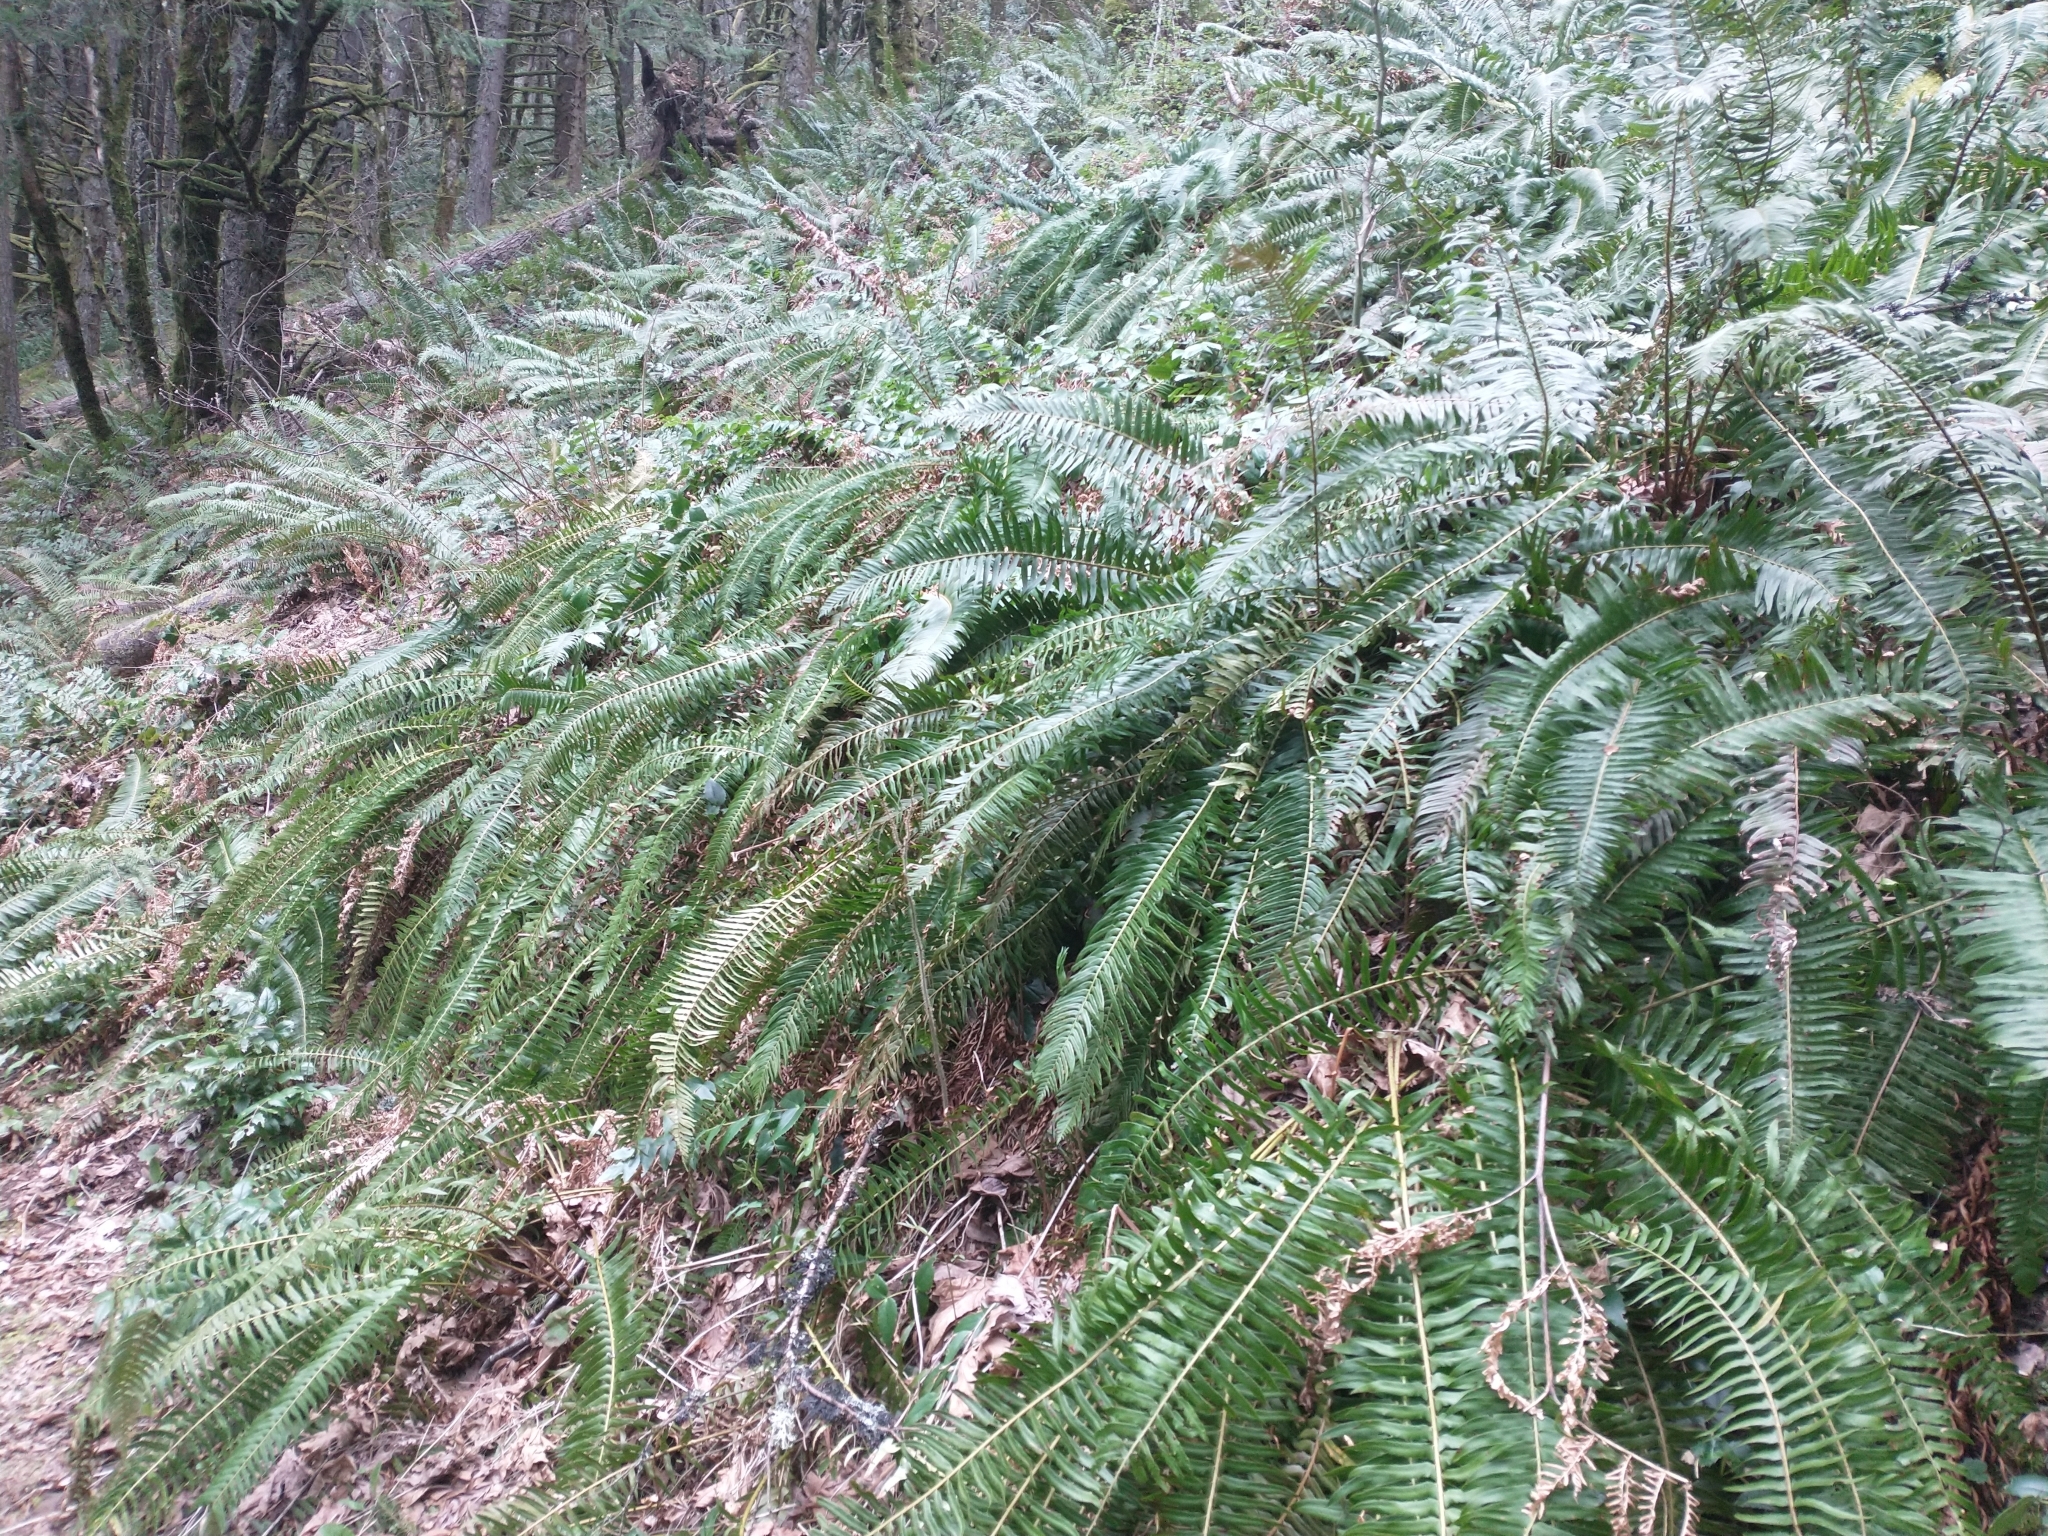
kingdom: Plantae
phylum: Tracheophyta
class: Polypodiopsida
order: Polypodiales
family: Dryopteridaceae
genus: Polystichum
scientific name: Polystichum munitum
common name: Western sword-fern
